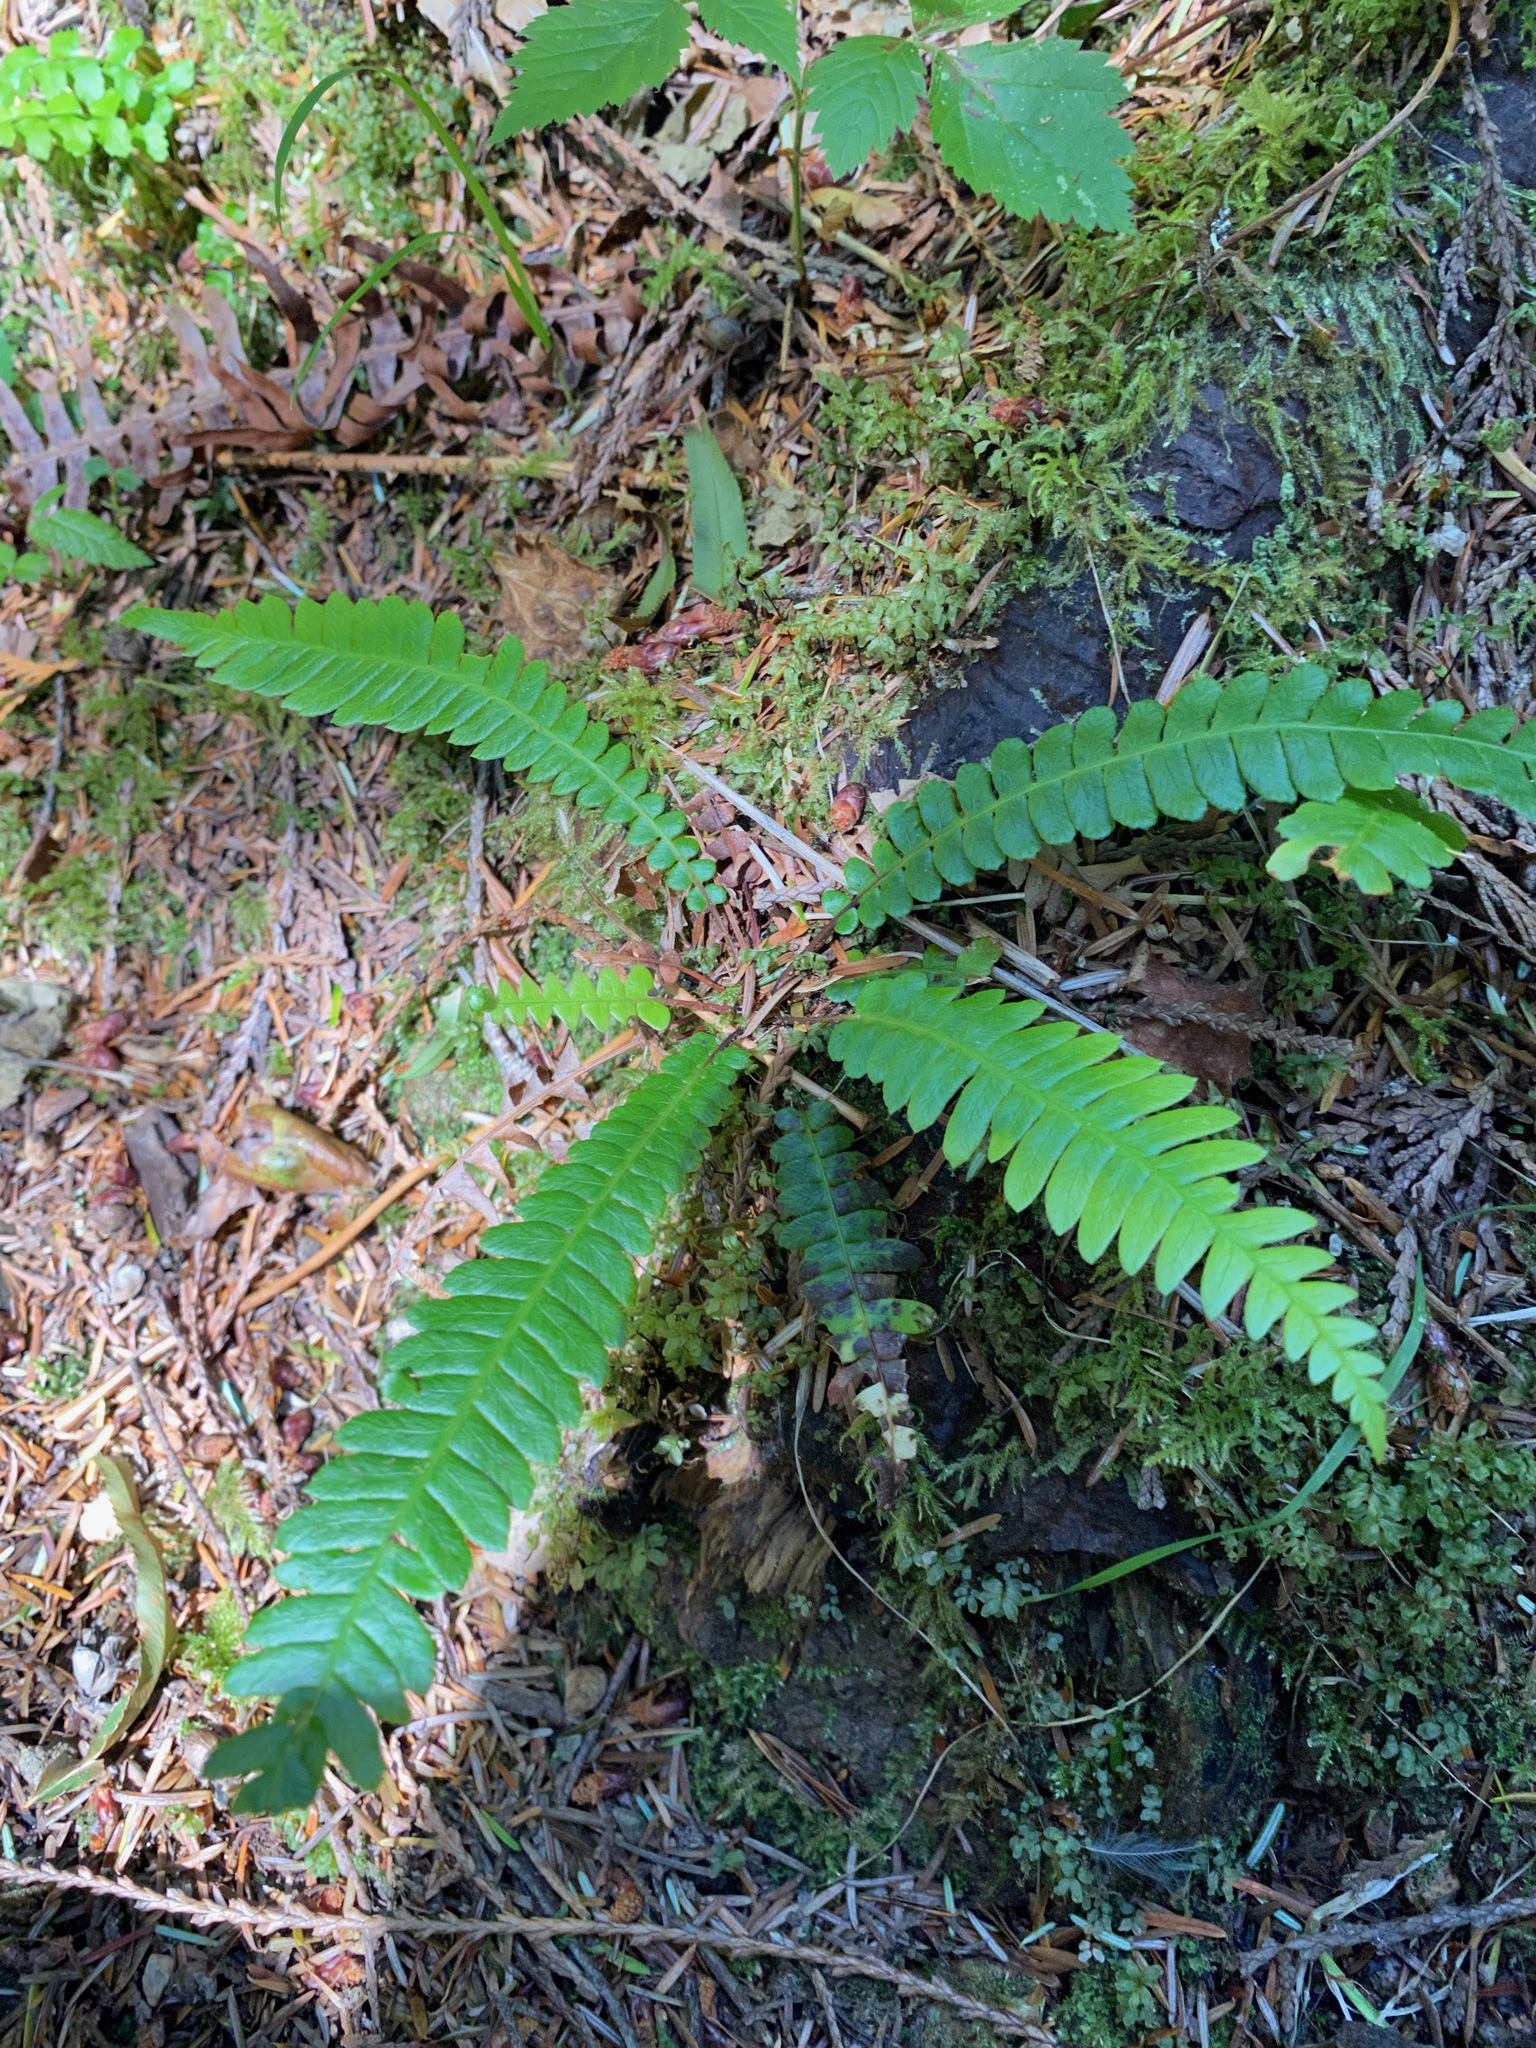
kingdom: Plantae
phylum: Tracheophyta
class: Polypodiopsida
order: Polypodiales
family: Blechnaceae
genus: Struthiopteris
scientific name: Struthiopteris spicant
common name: Deer fern
